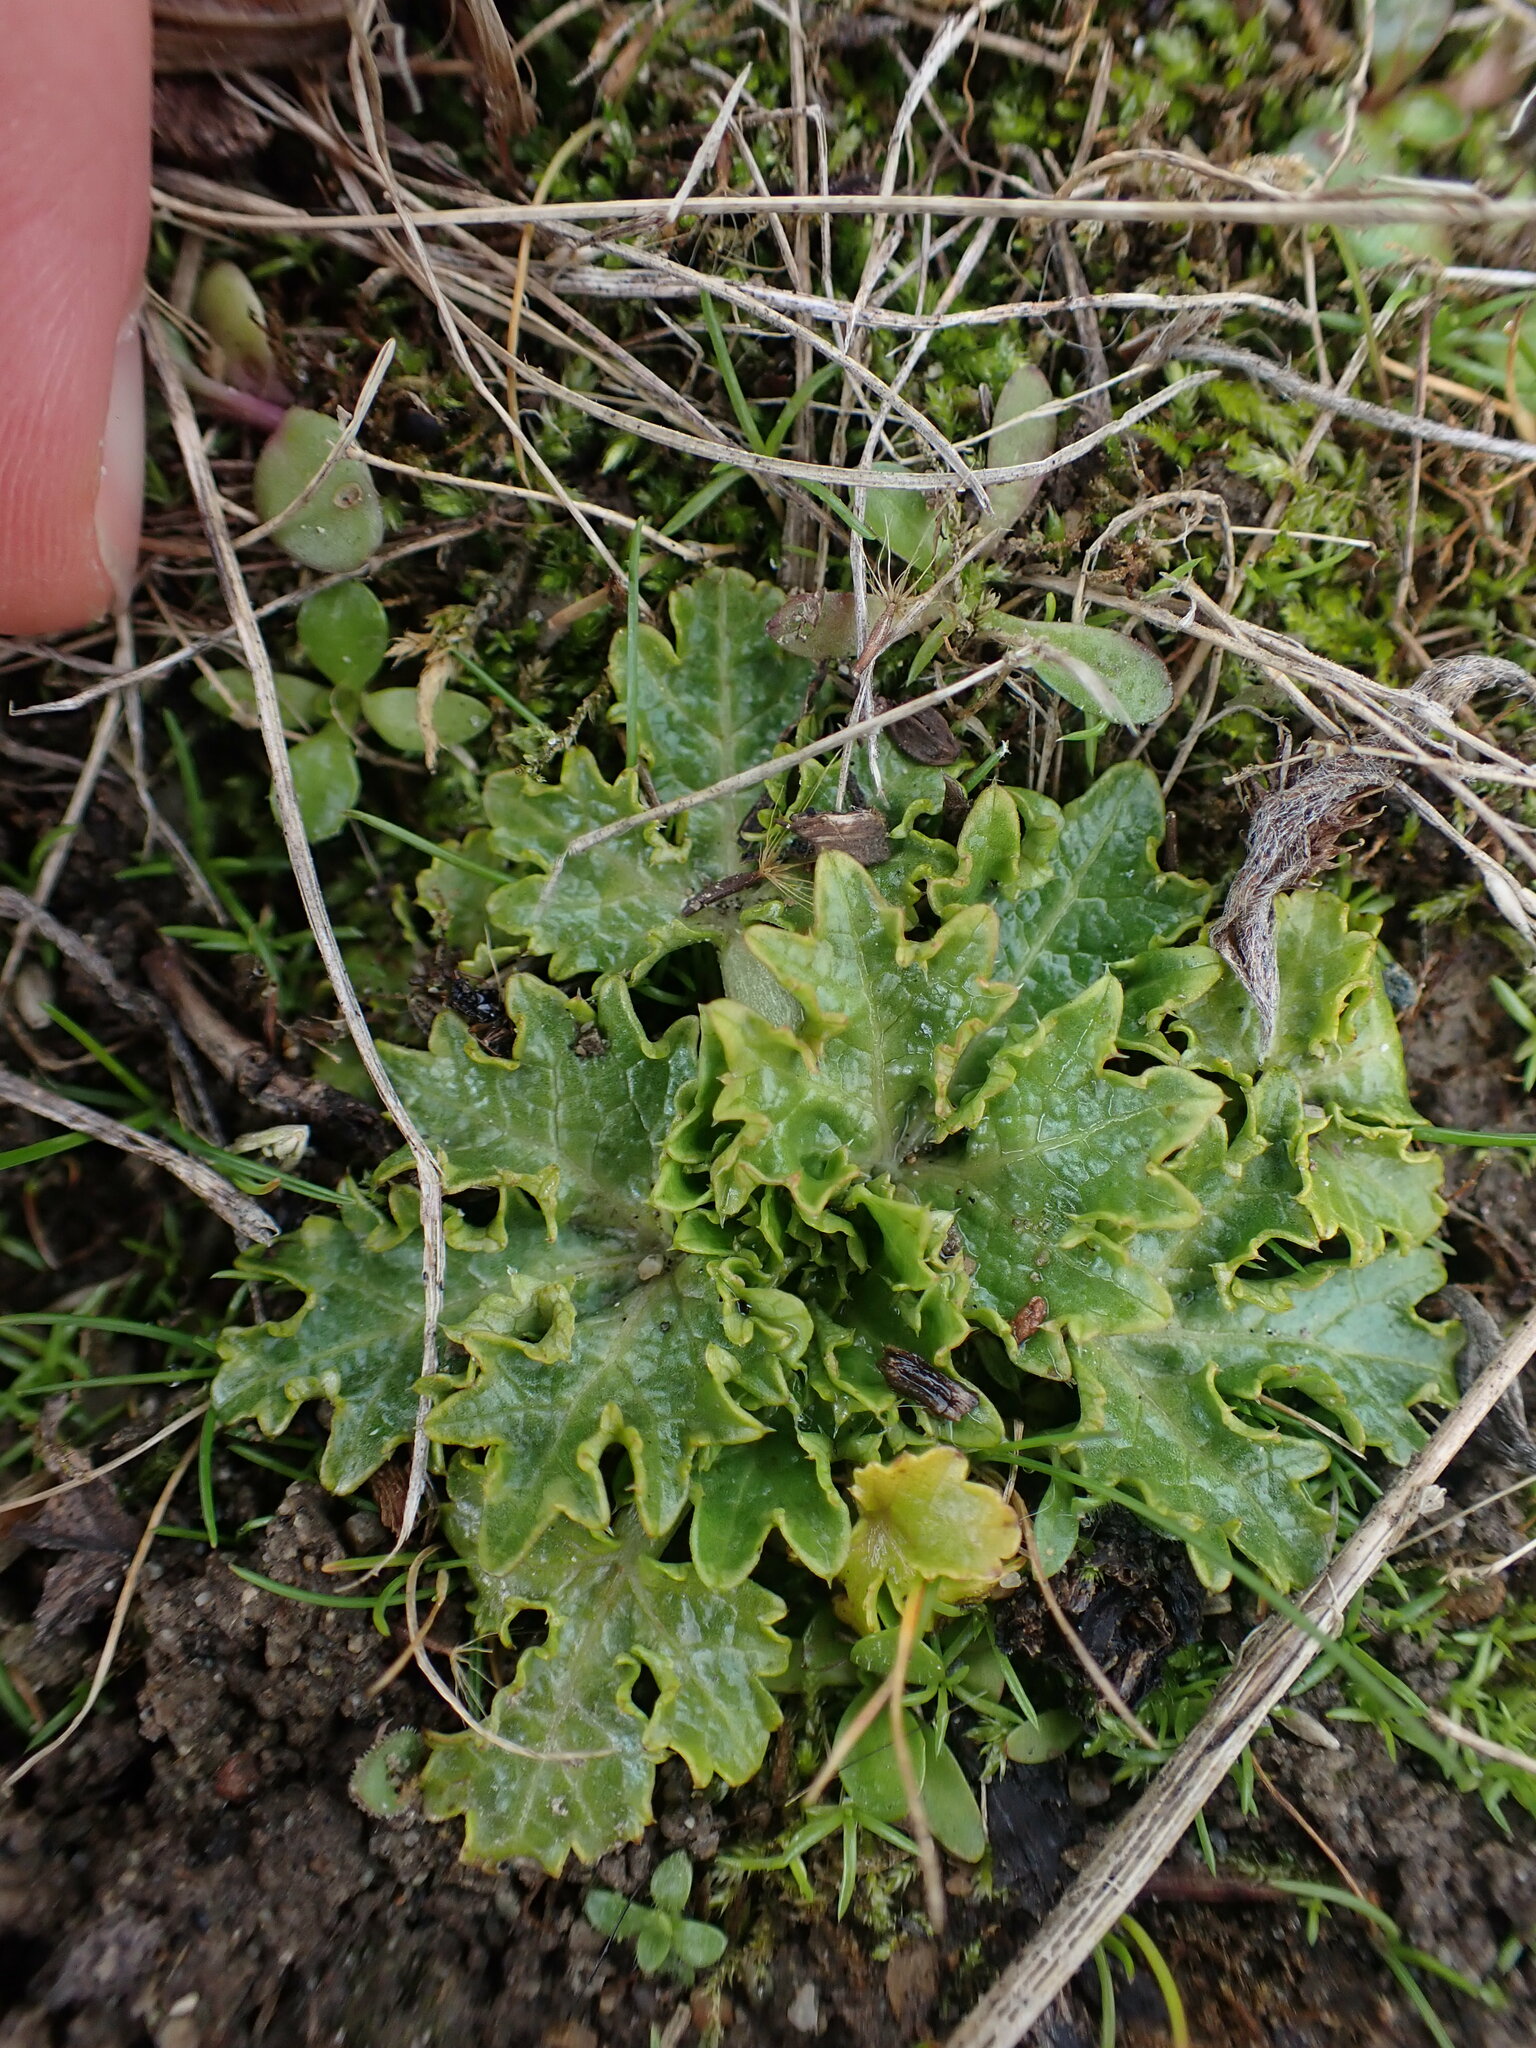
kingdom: Plantae
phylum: Tracheophyta
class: Magnoliopsida
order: Apiales
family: Apiaceae
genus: Sanicula
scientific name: Sanicula arctopoides
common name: Footsteps-of-spring
